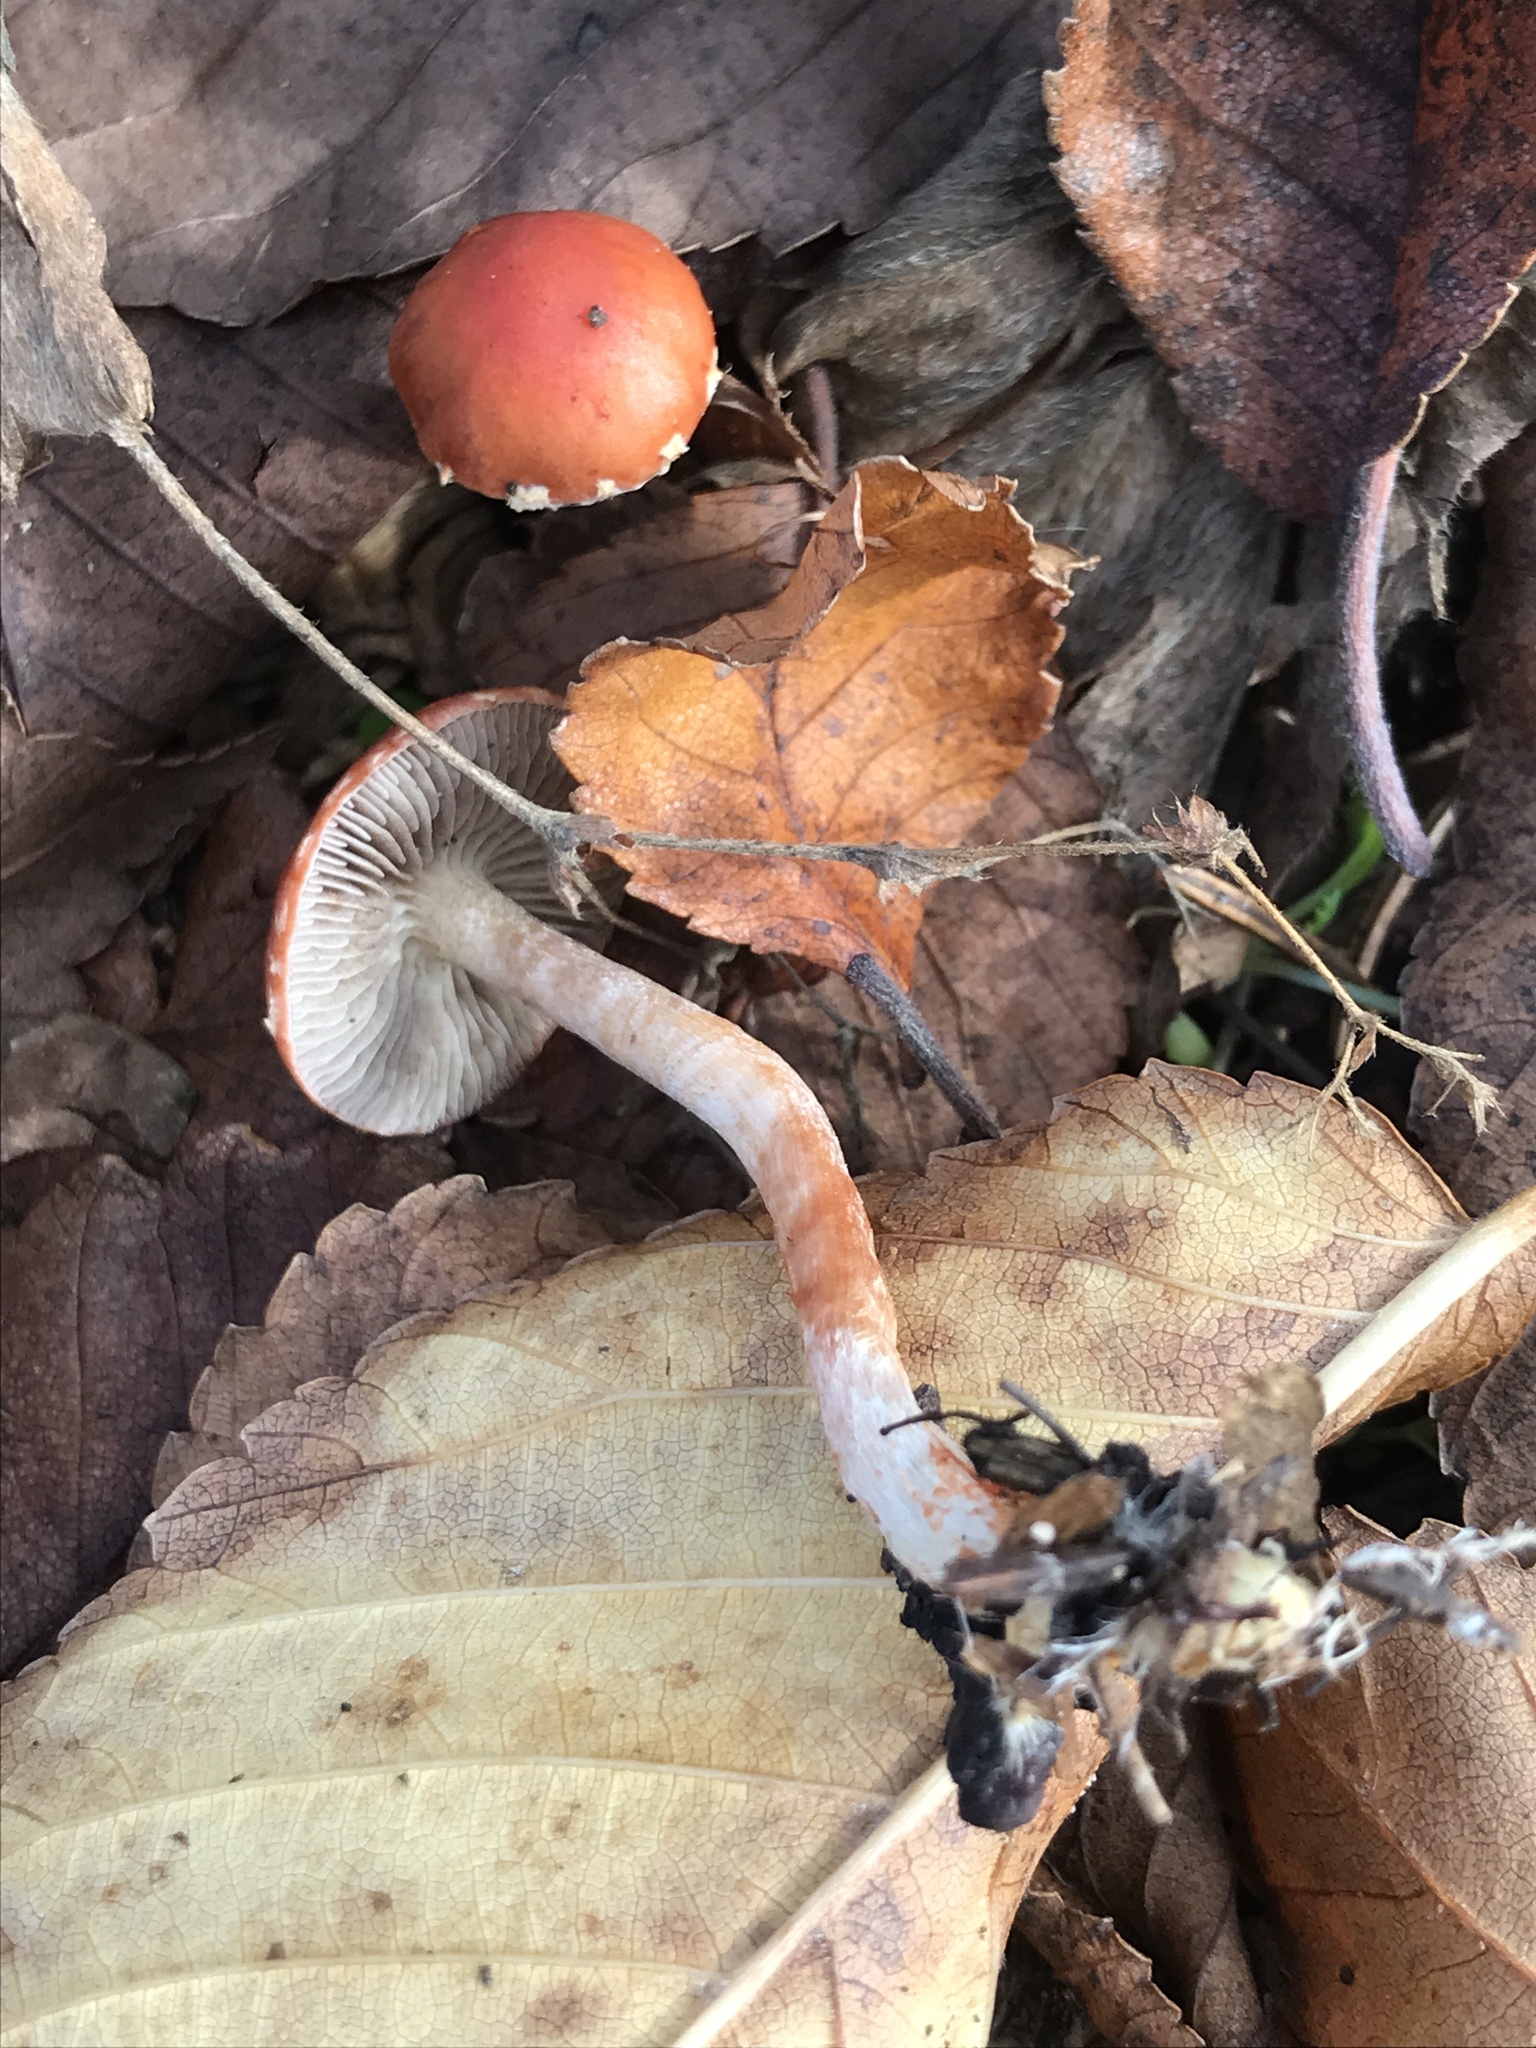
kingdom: Fungi
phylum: Basidiomycota
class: Agaricomycetes
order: Agaricales
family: Strophariaceae
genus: Leratiomyces
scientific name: Leratiomyces ceres
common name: Redlead roundhead
